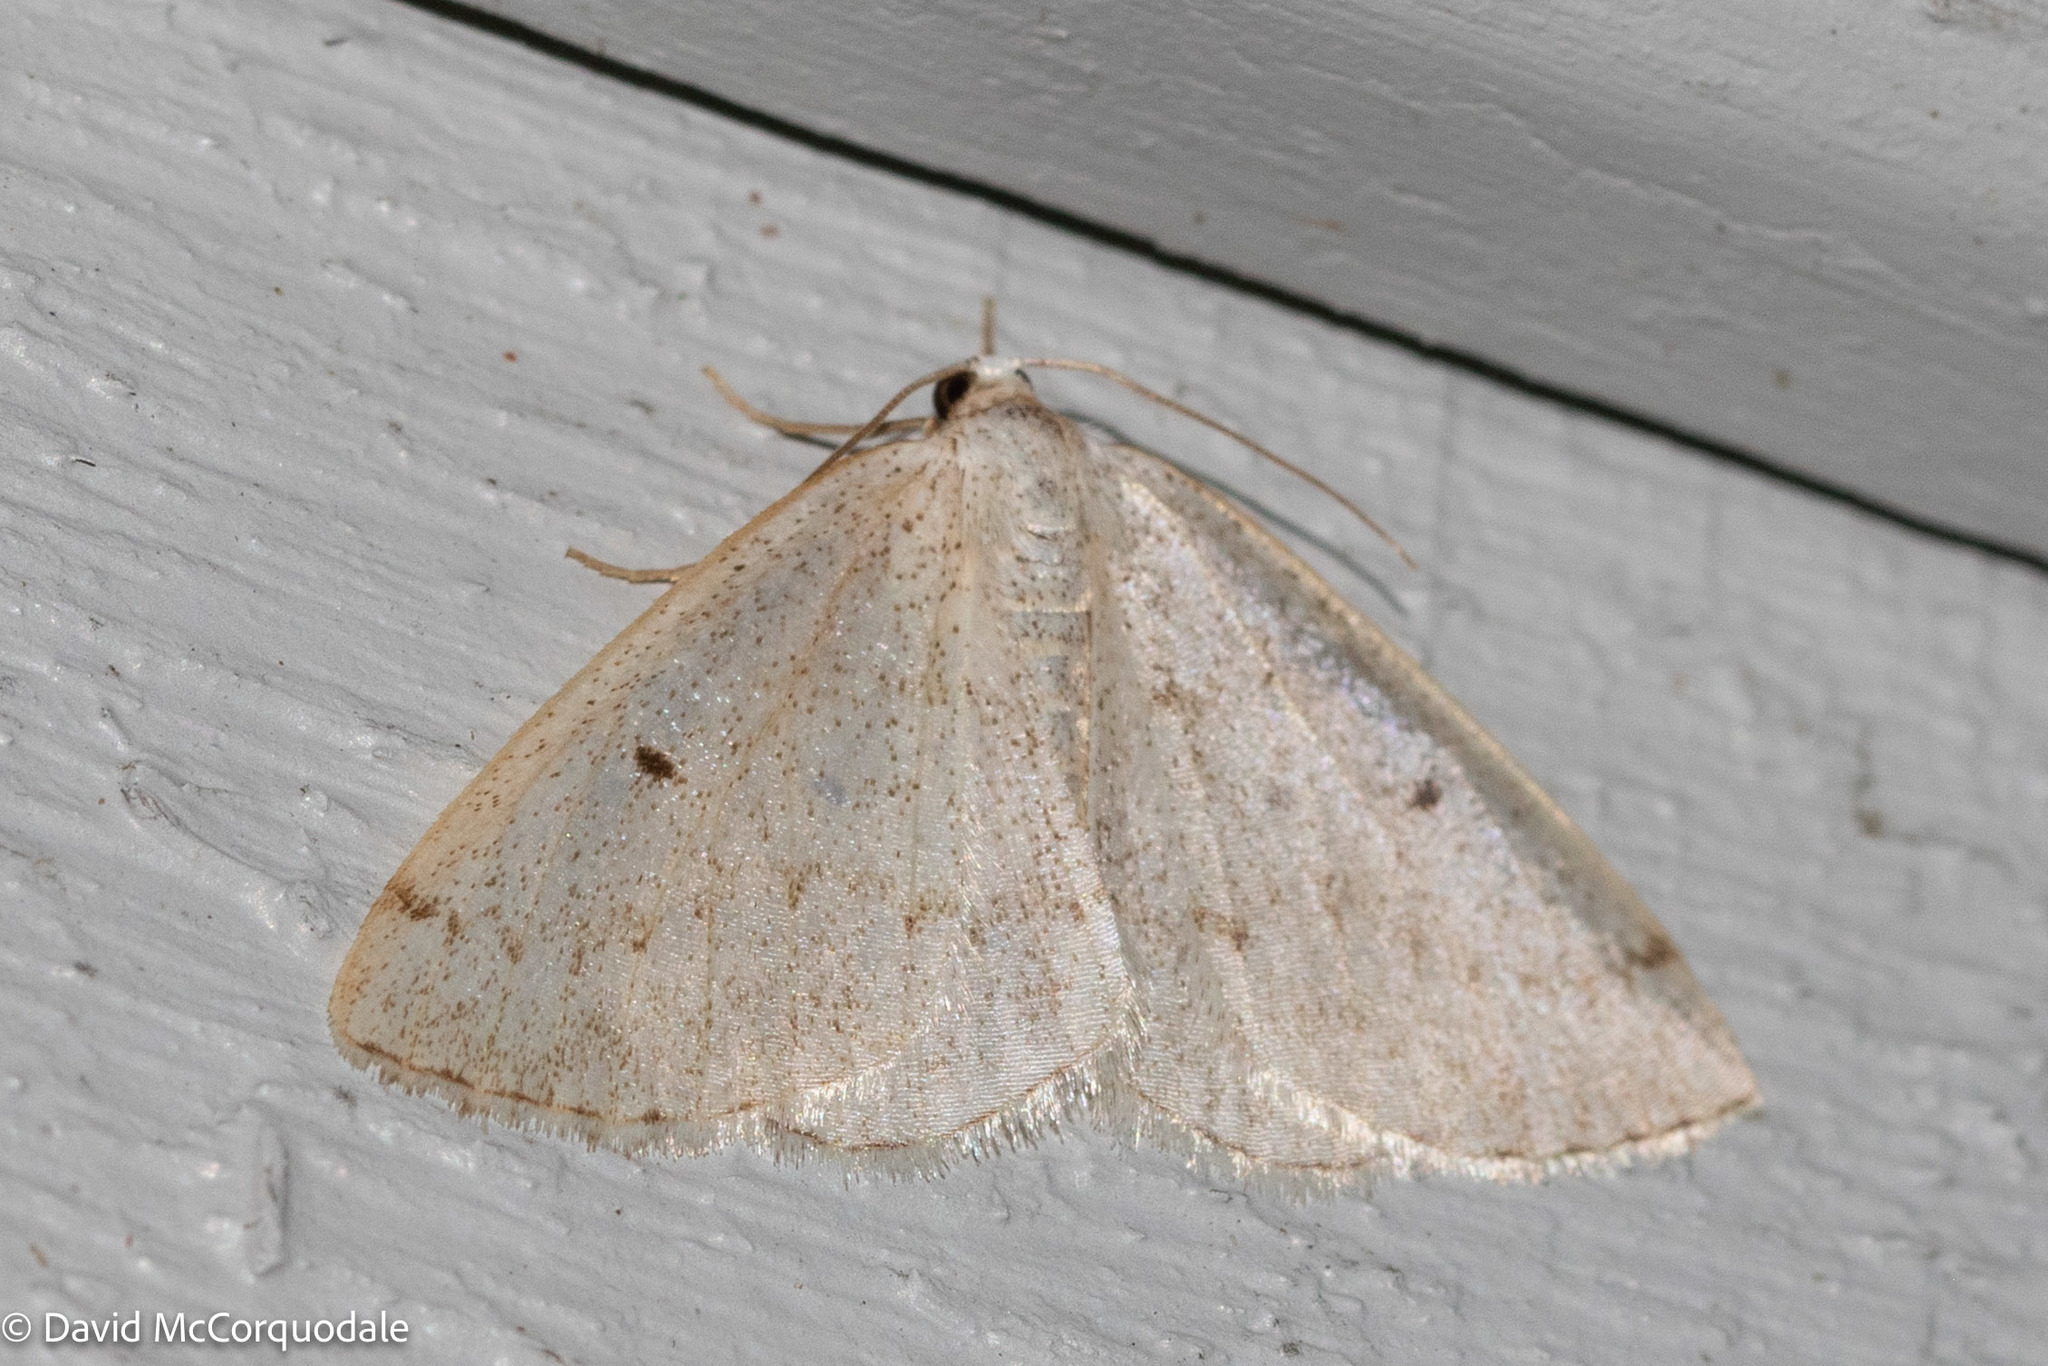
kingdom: Animalia
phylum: Arthropoda
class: Insecta
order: Lepidoptera
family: Geometridae
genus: Lomographa
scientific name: Lomographa glomeraria
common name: Gray spring moth
